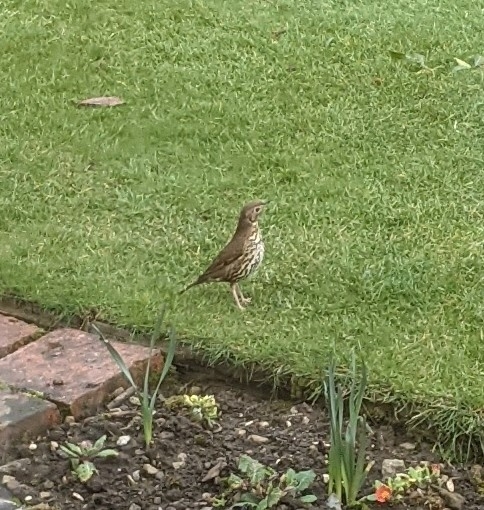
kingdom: Animalia
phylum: Chordata
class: Aves
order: Passeriformes
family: Turdidae
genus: Turdus
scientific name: Turdus philomelos
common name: Song thrush
